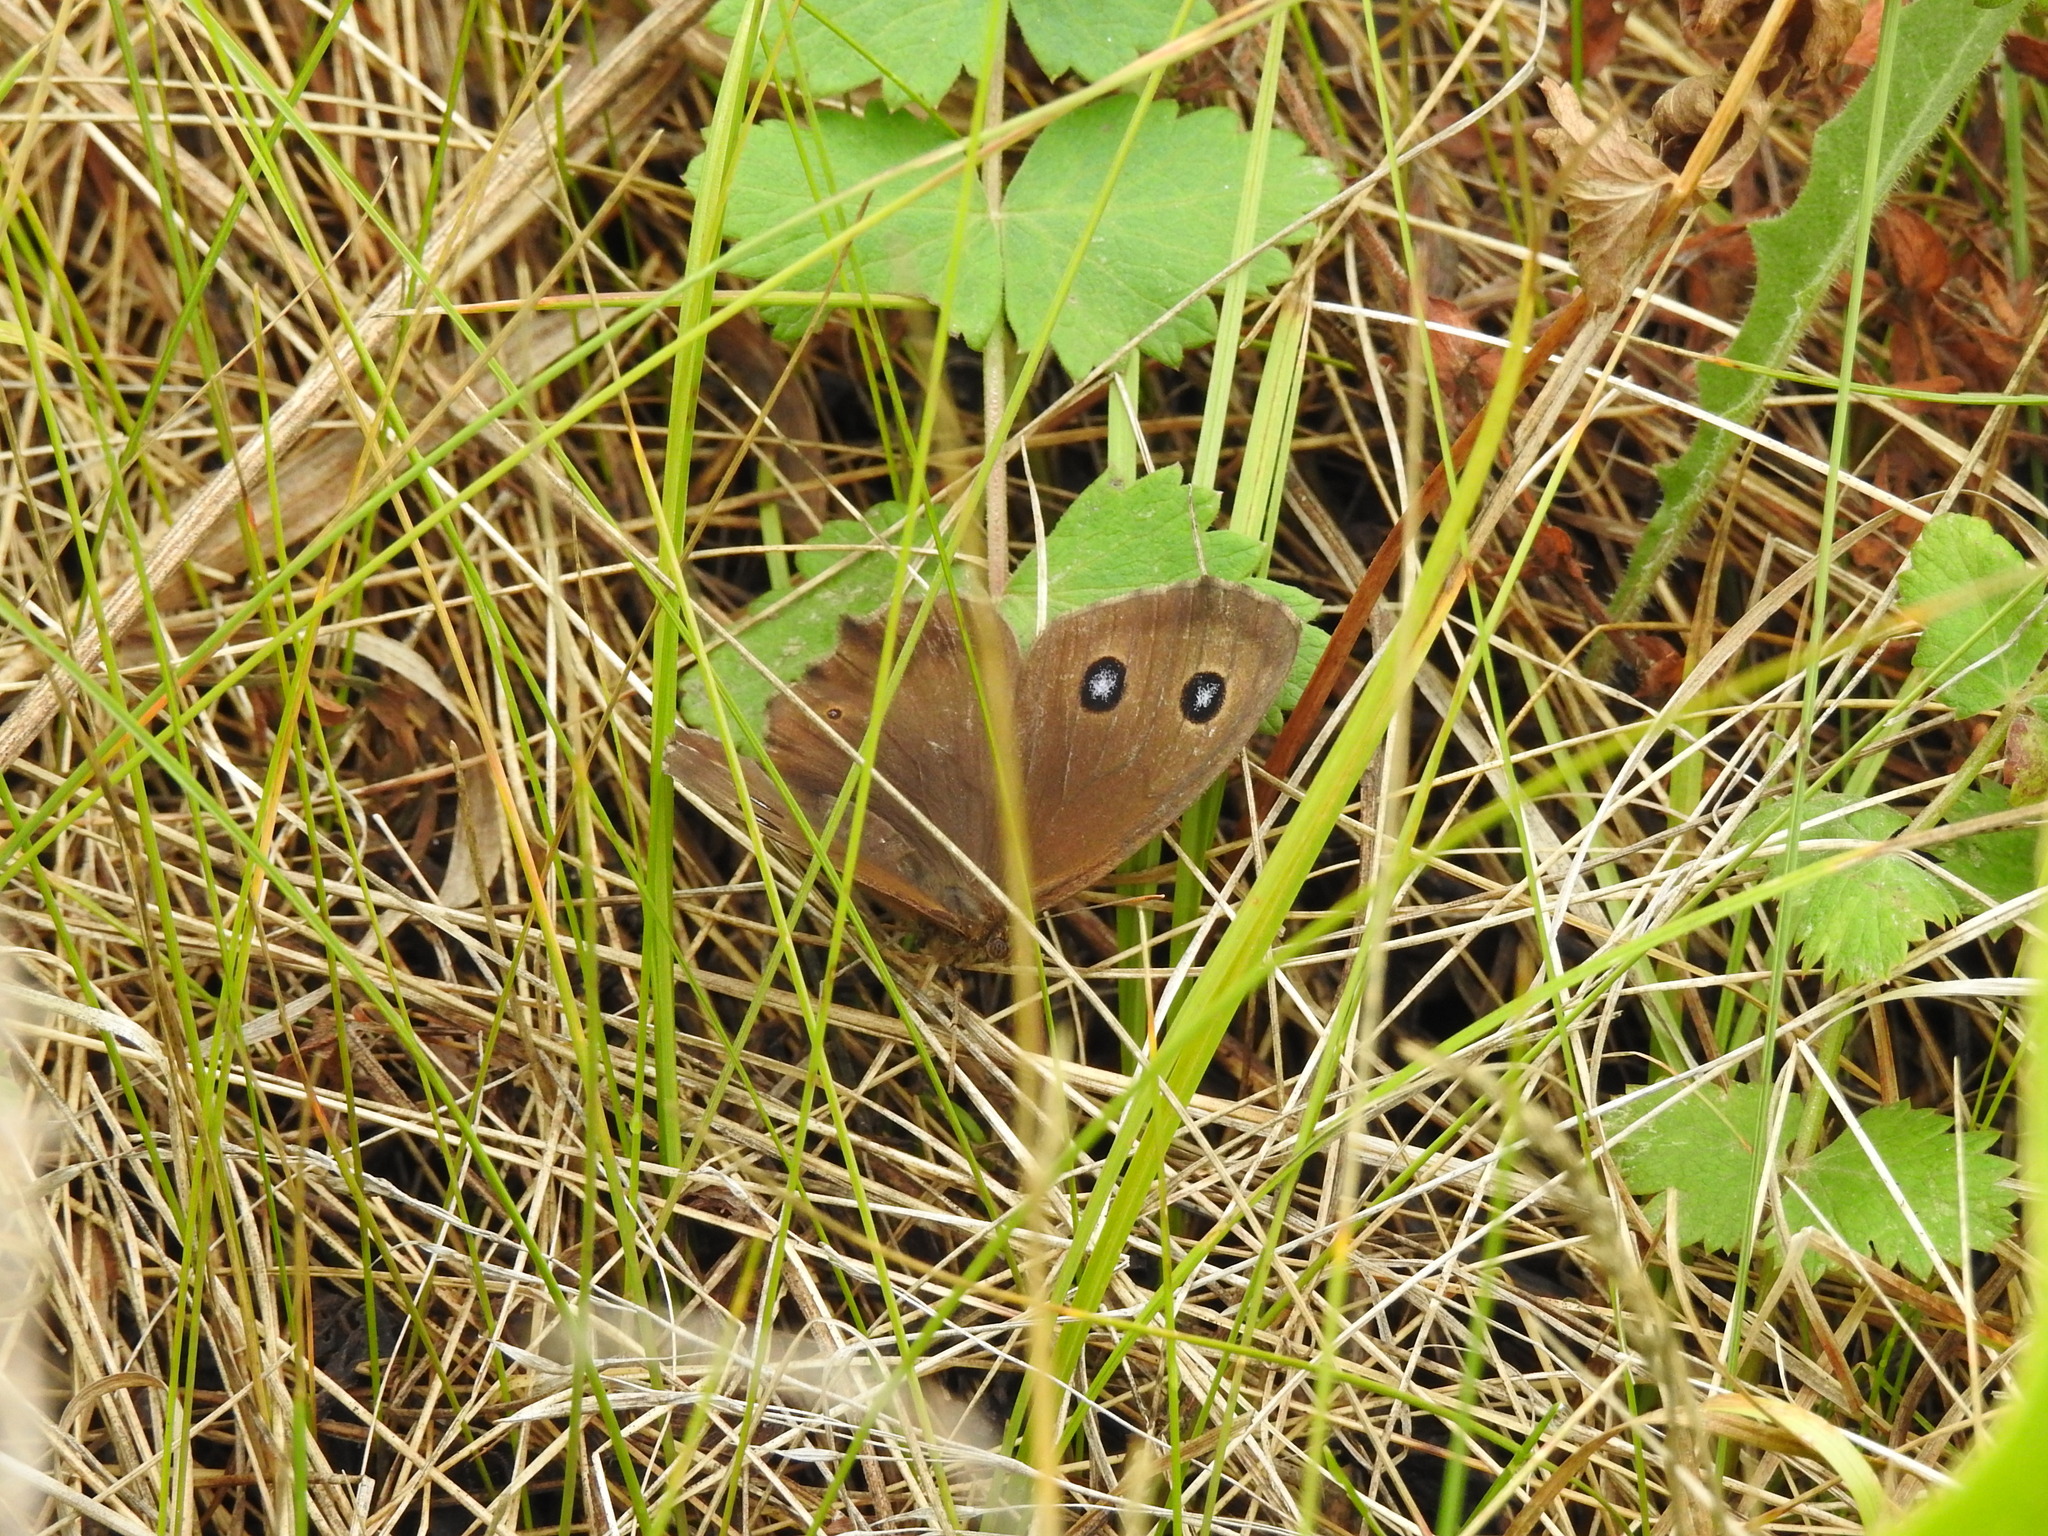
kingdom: Animalia
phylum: Arthropoda
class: Insecta
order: Lepidoptera
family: Nymphalidae
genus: Minois
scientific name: Minois dryas
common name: Dryad
